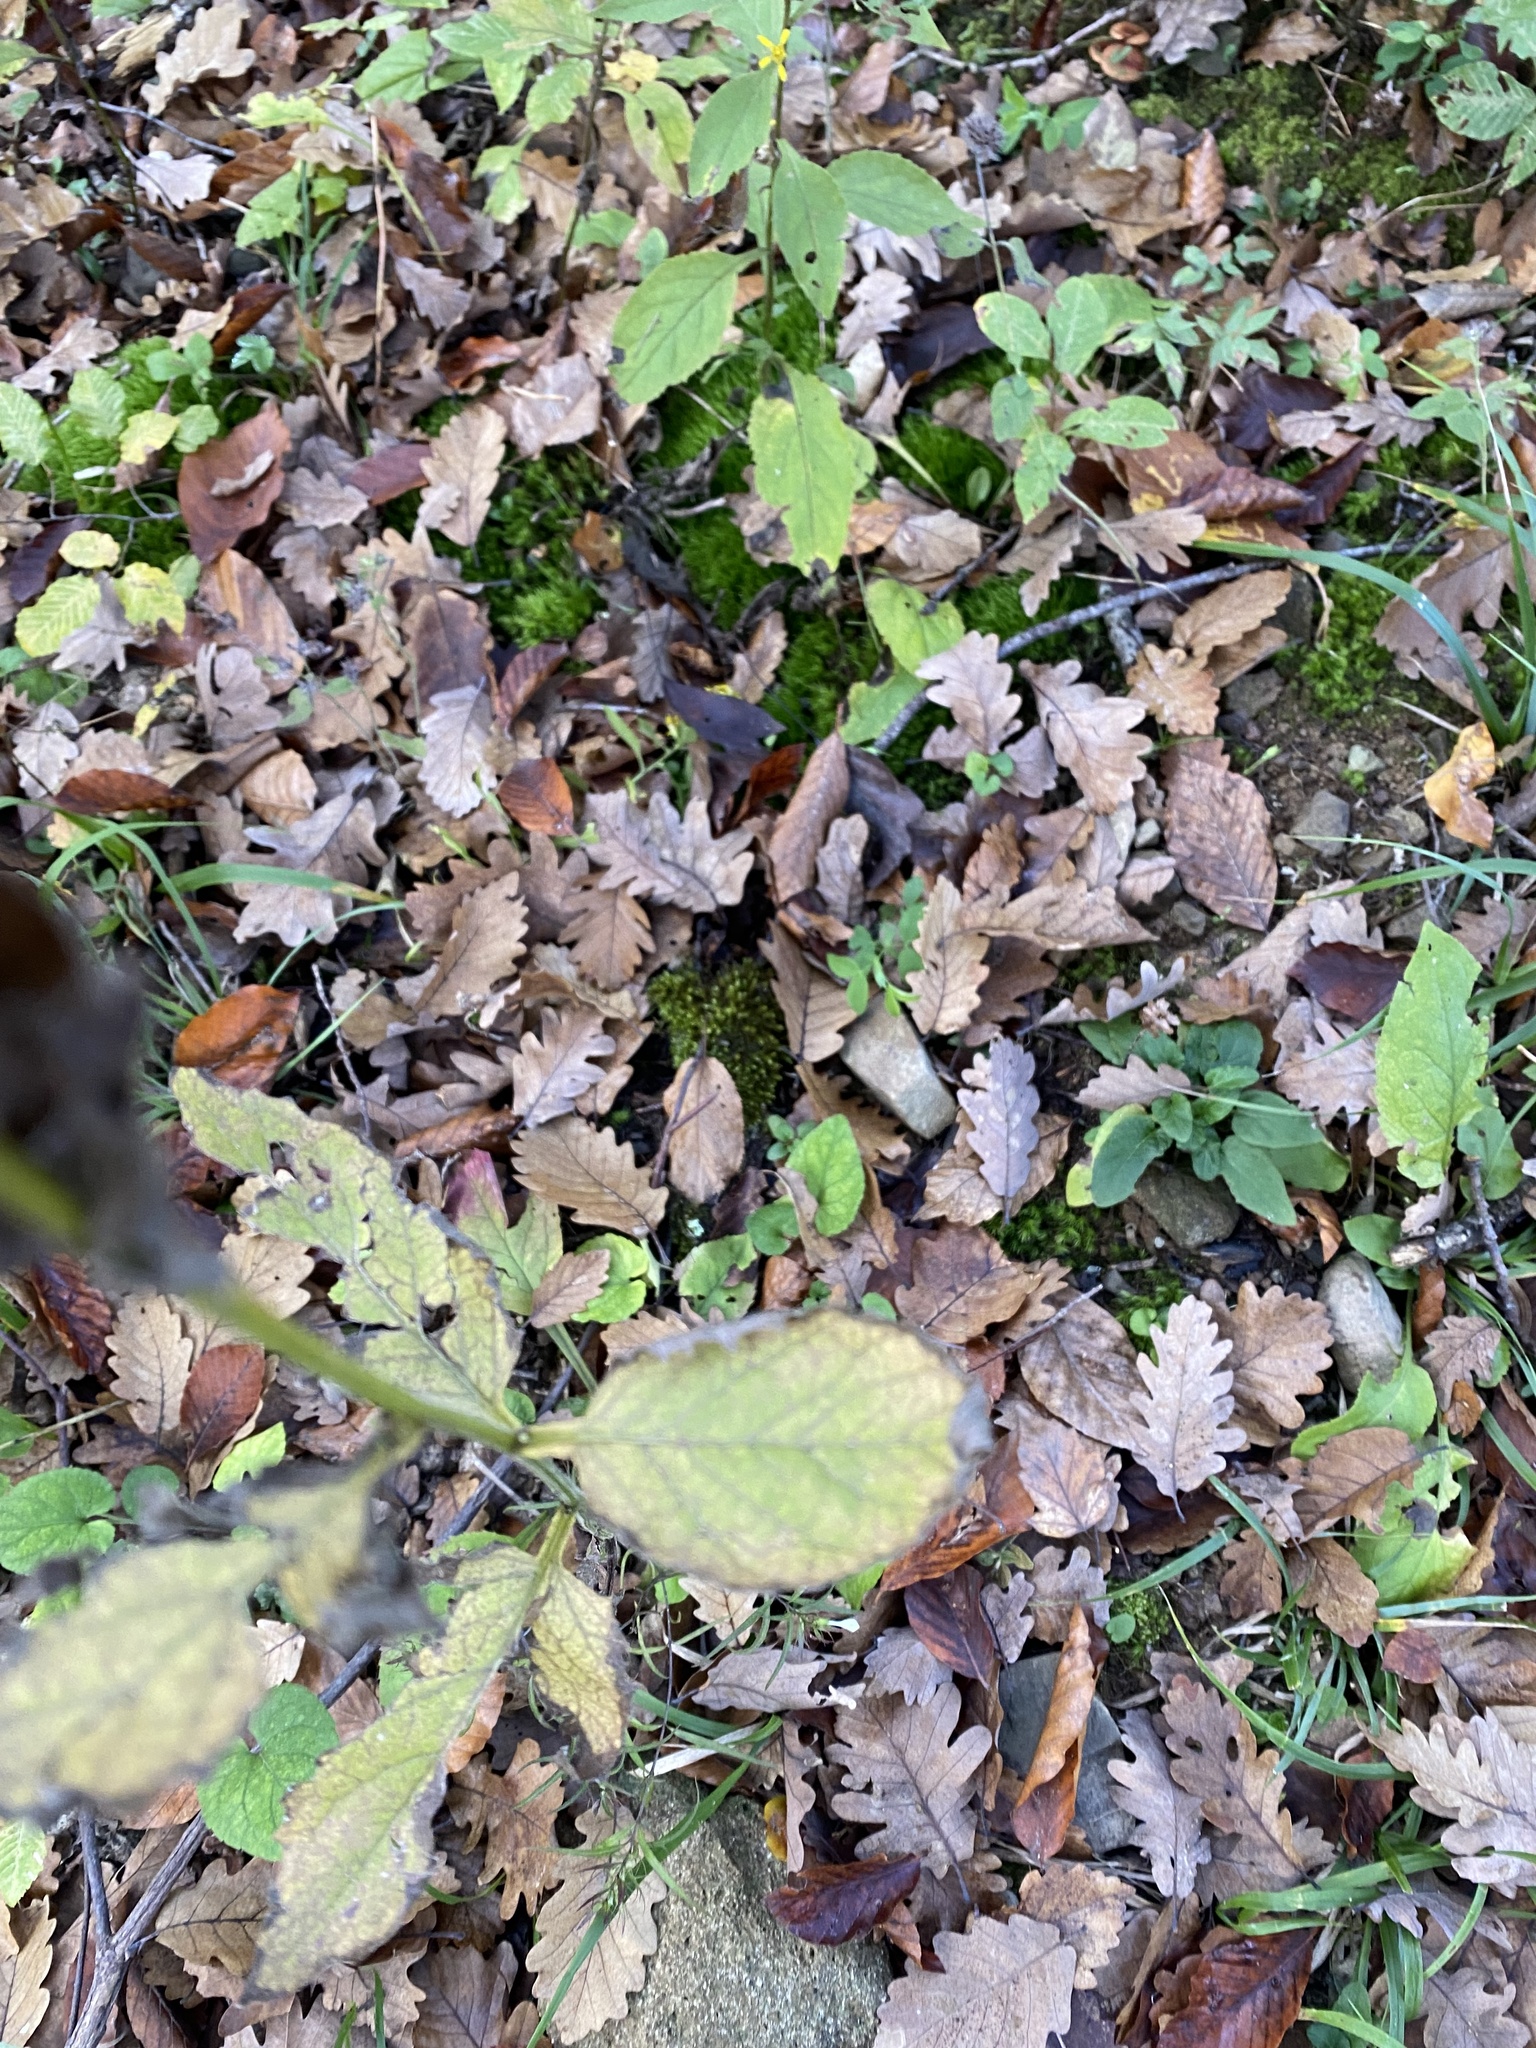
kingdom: Plantae
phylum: Tracheophyta
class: Magnoliopsida
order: Asterales
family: Asteraceae
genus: Lapsana
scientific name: Lapsana communis
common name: Nipplewort
